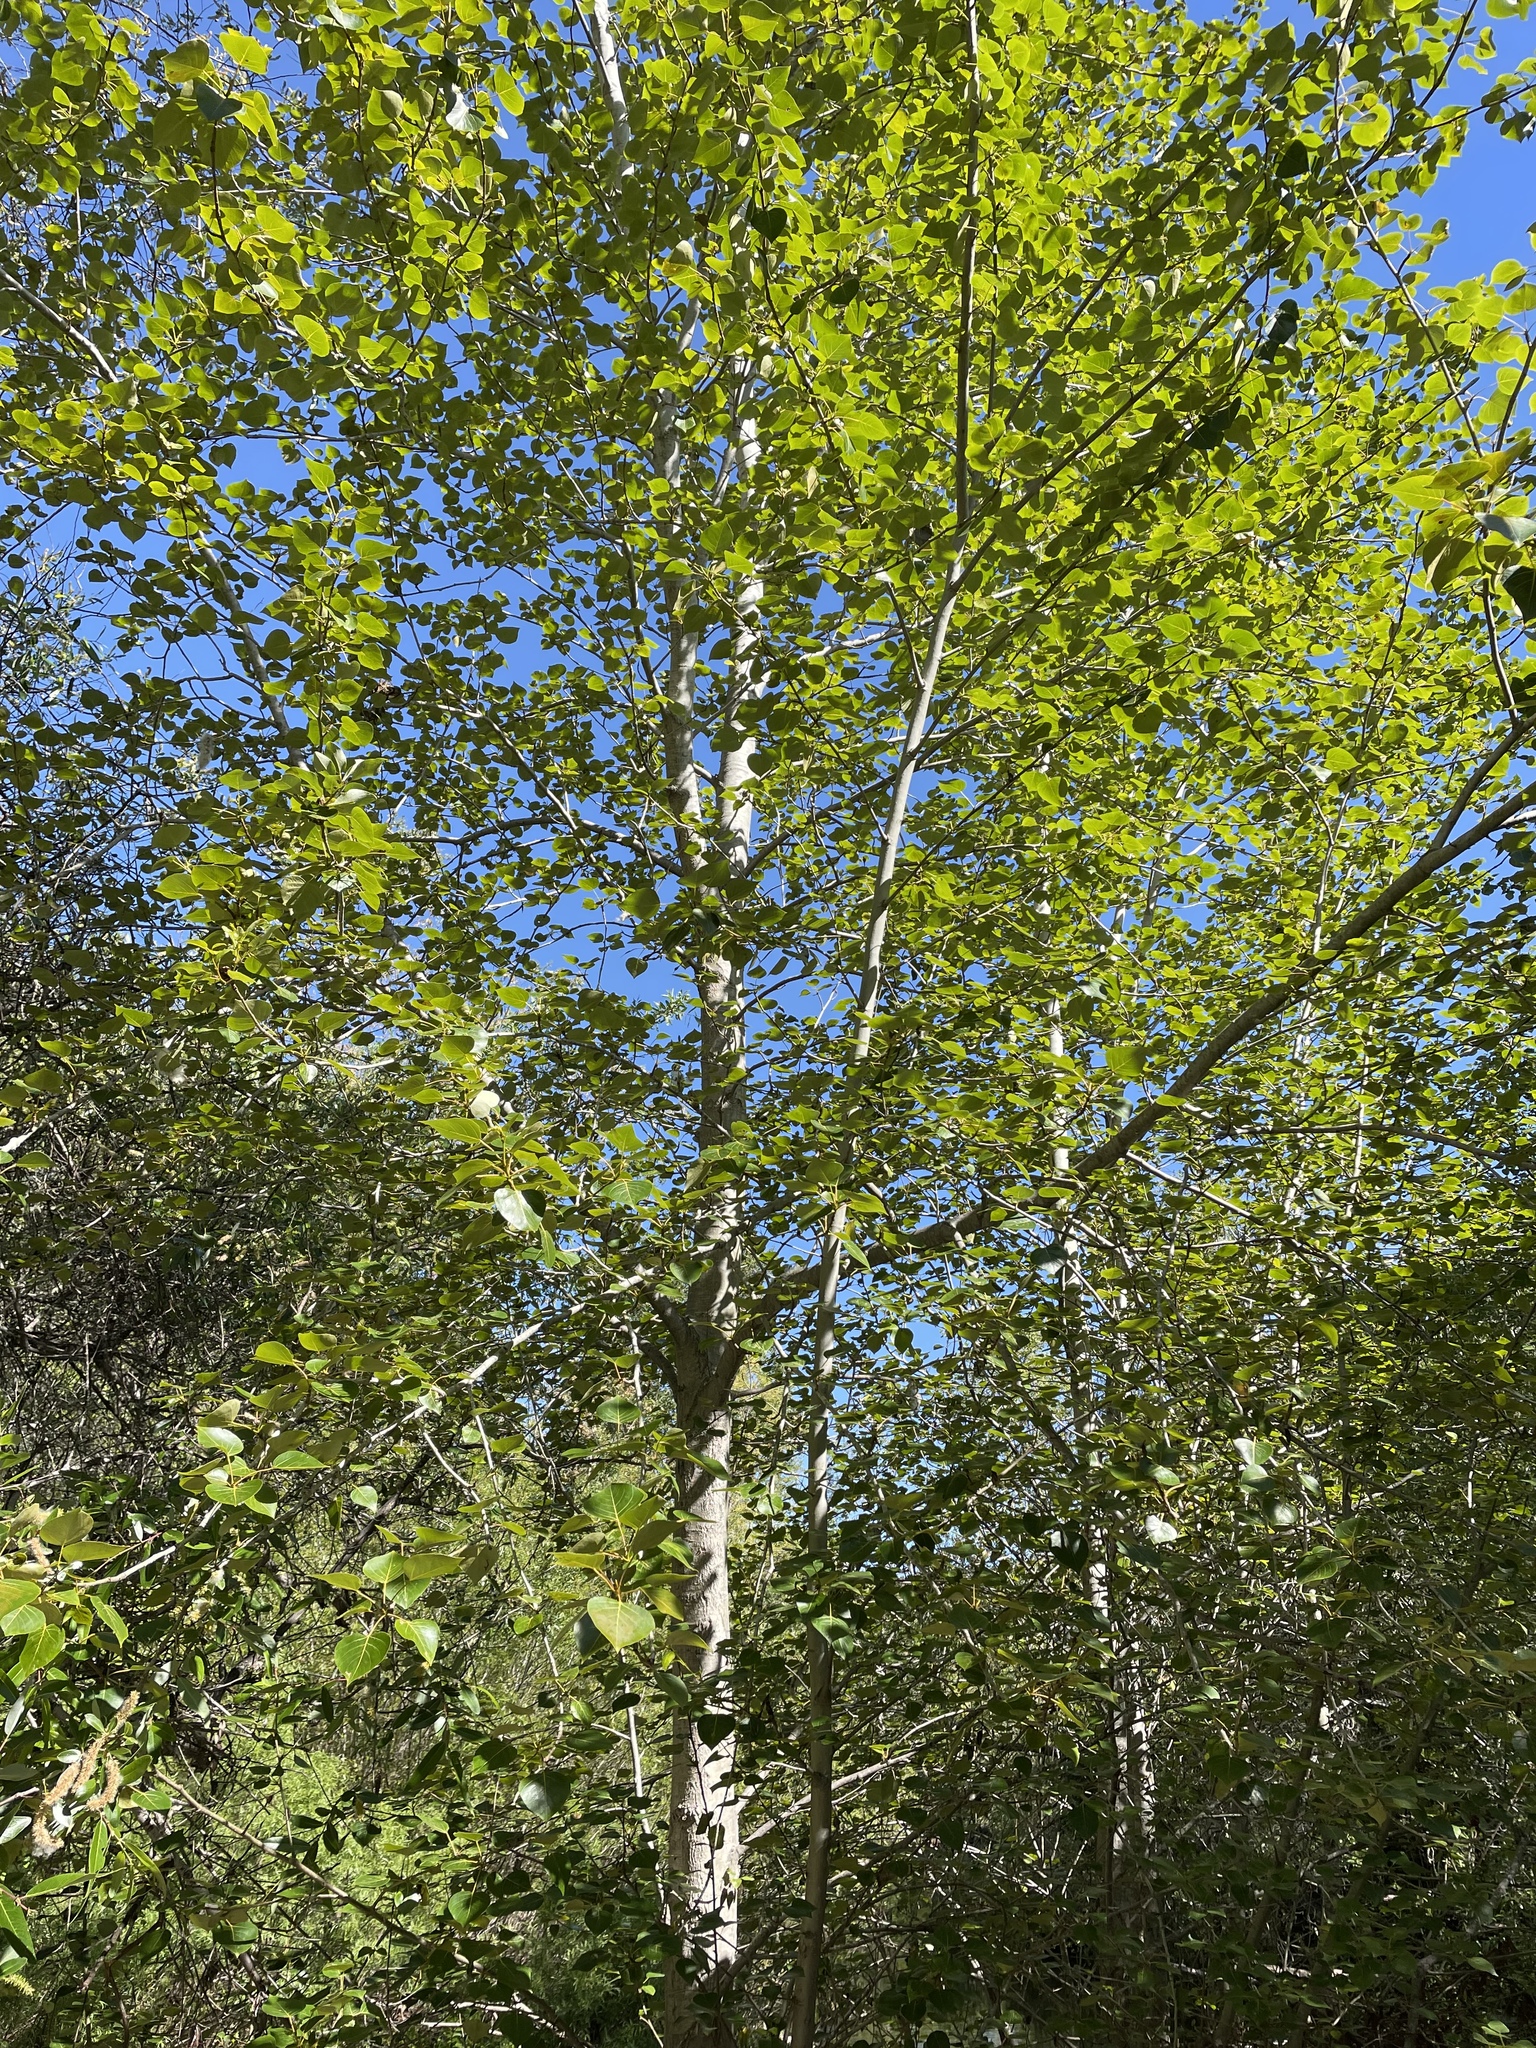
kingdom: Plantae
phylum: Tracheophyta
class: Magnoliopsida
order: Malpighiales
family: Salicaceae
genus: Populus
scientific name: Populus trichocarpa
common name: Black cottonwood
